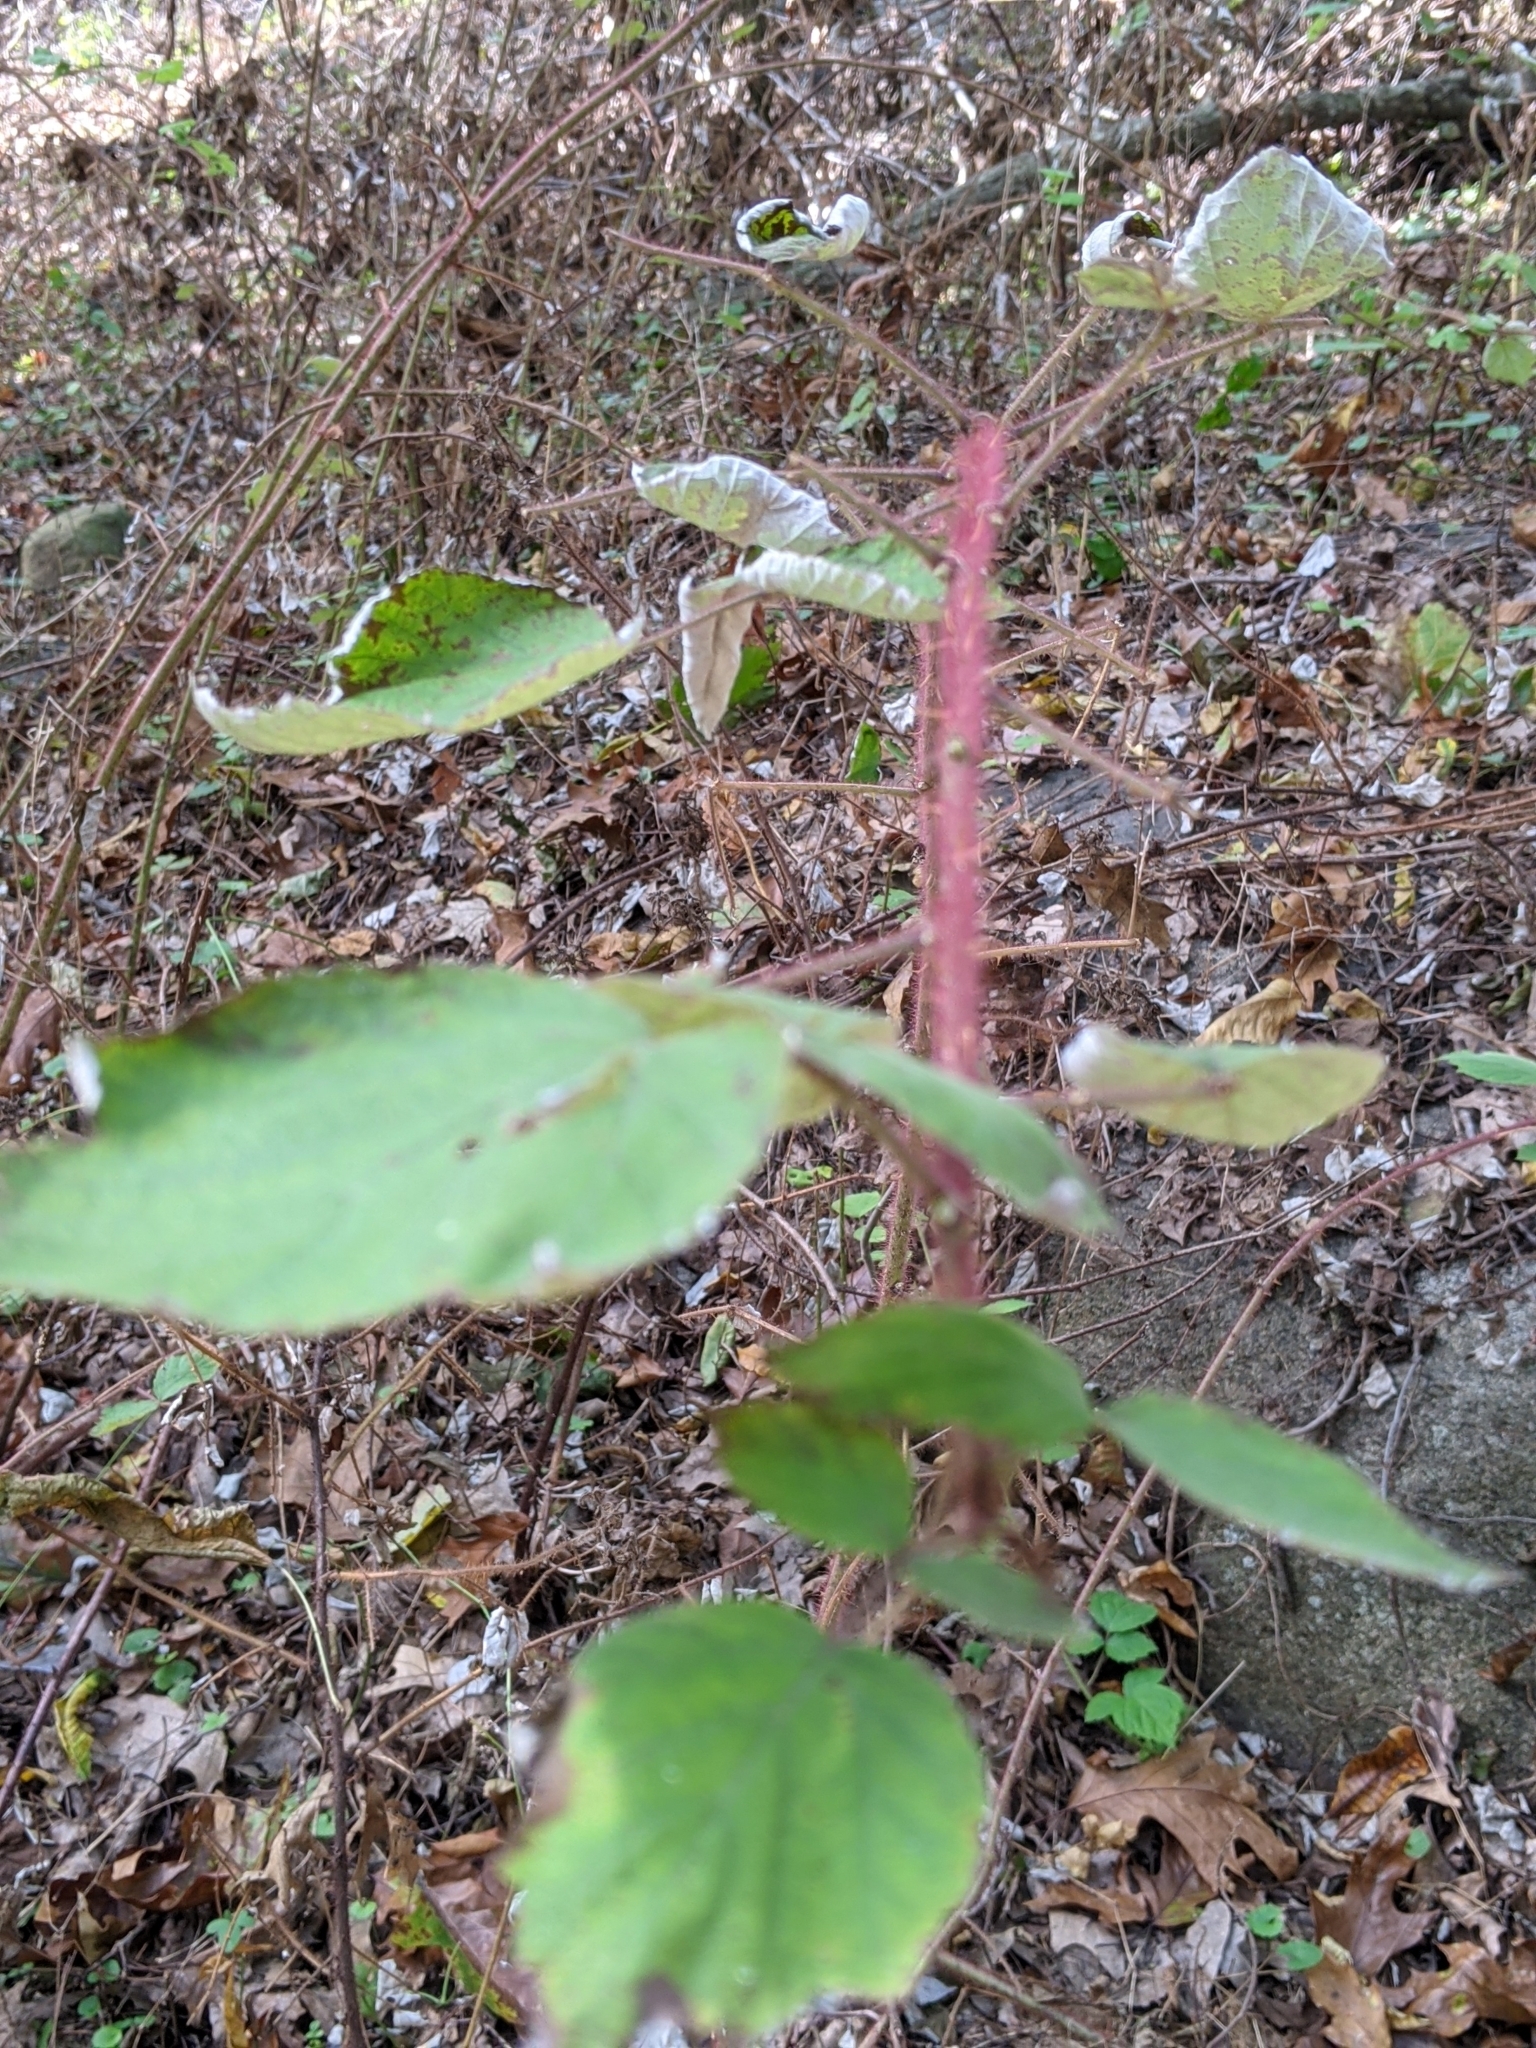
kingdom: Plantae
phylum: Tracheophyta
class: Magnoliopsida
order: Rosales
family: Rosaceae
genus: Rubus
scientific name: Rubus phoenicolasius
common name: Japanese wineberry
